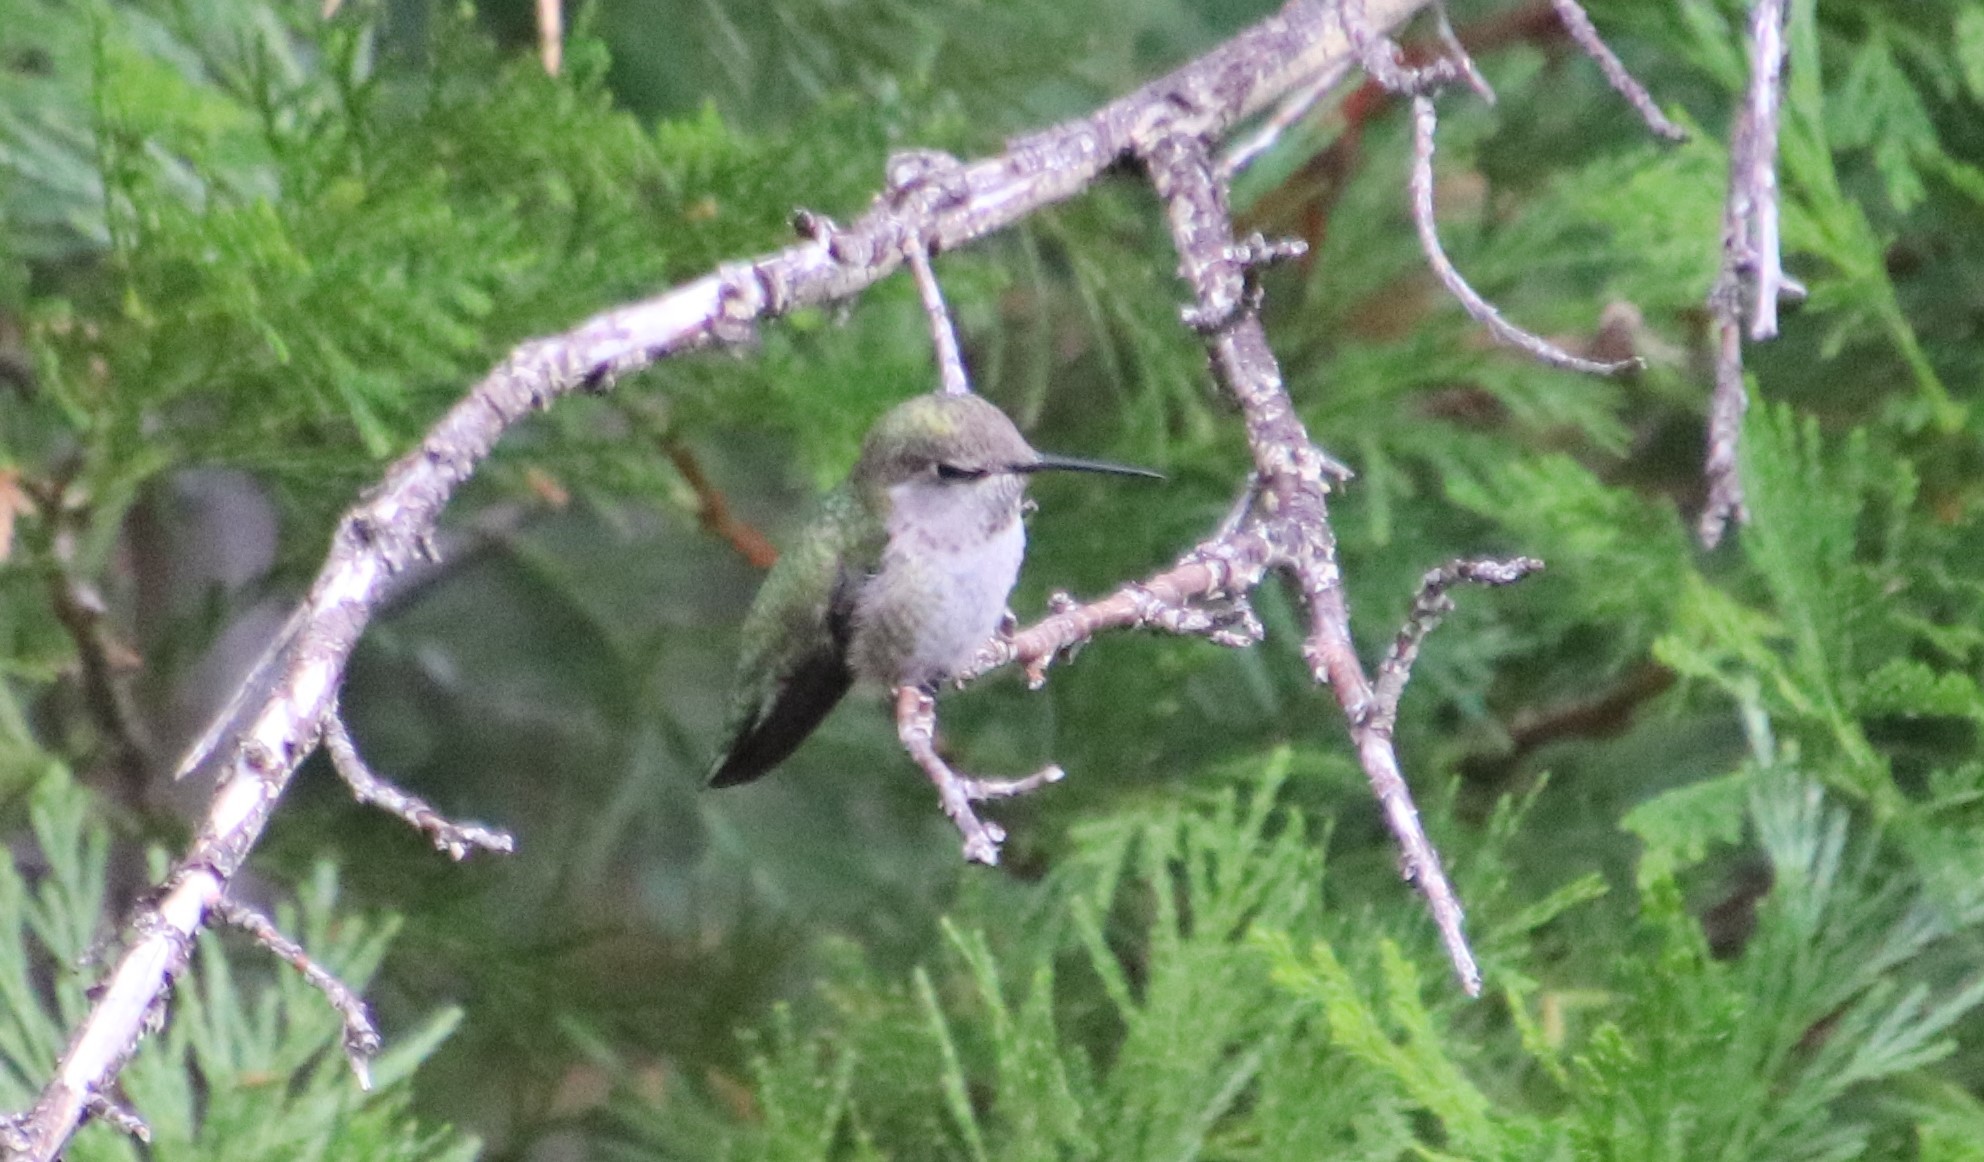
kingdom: Animalia
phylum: Chordata
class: Aves
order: Apodiformes
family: Trochilidae
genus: Calypte
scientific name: Calypte costae
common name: Costa's hummingbird
